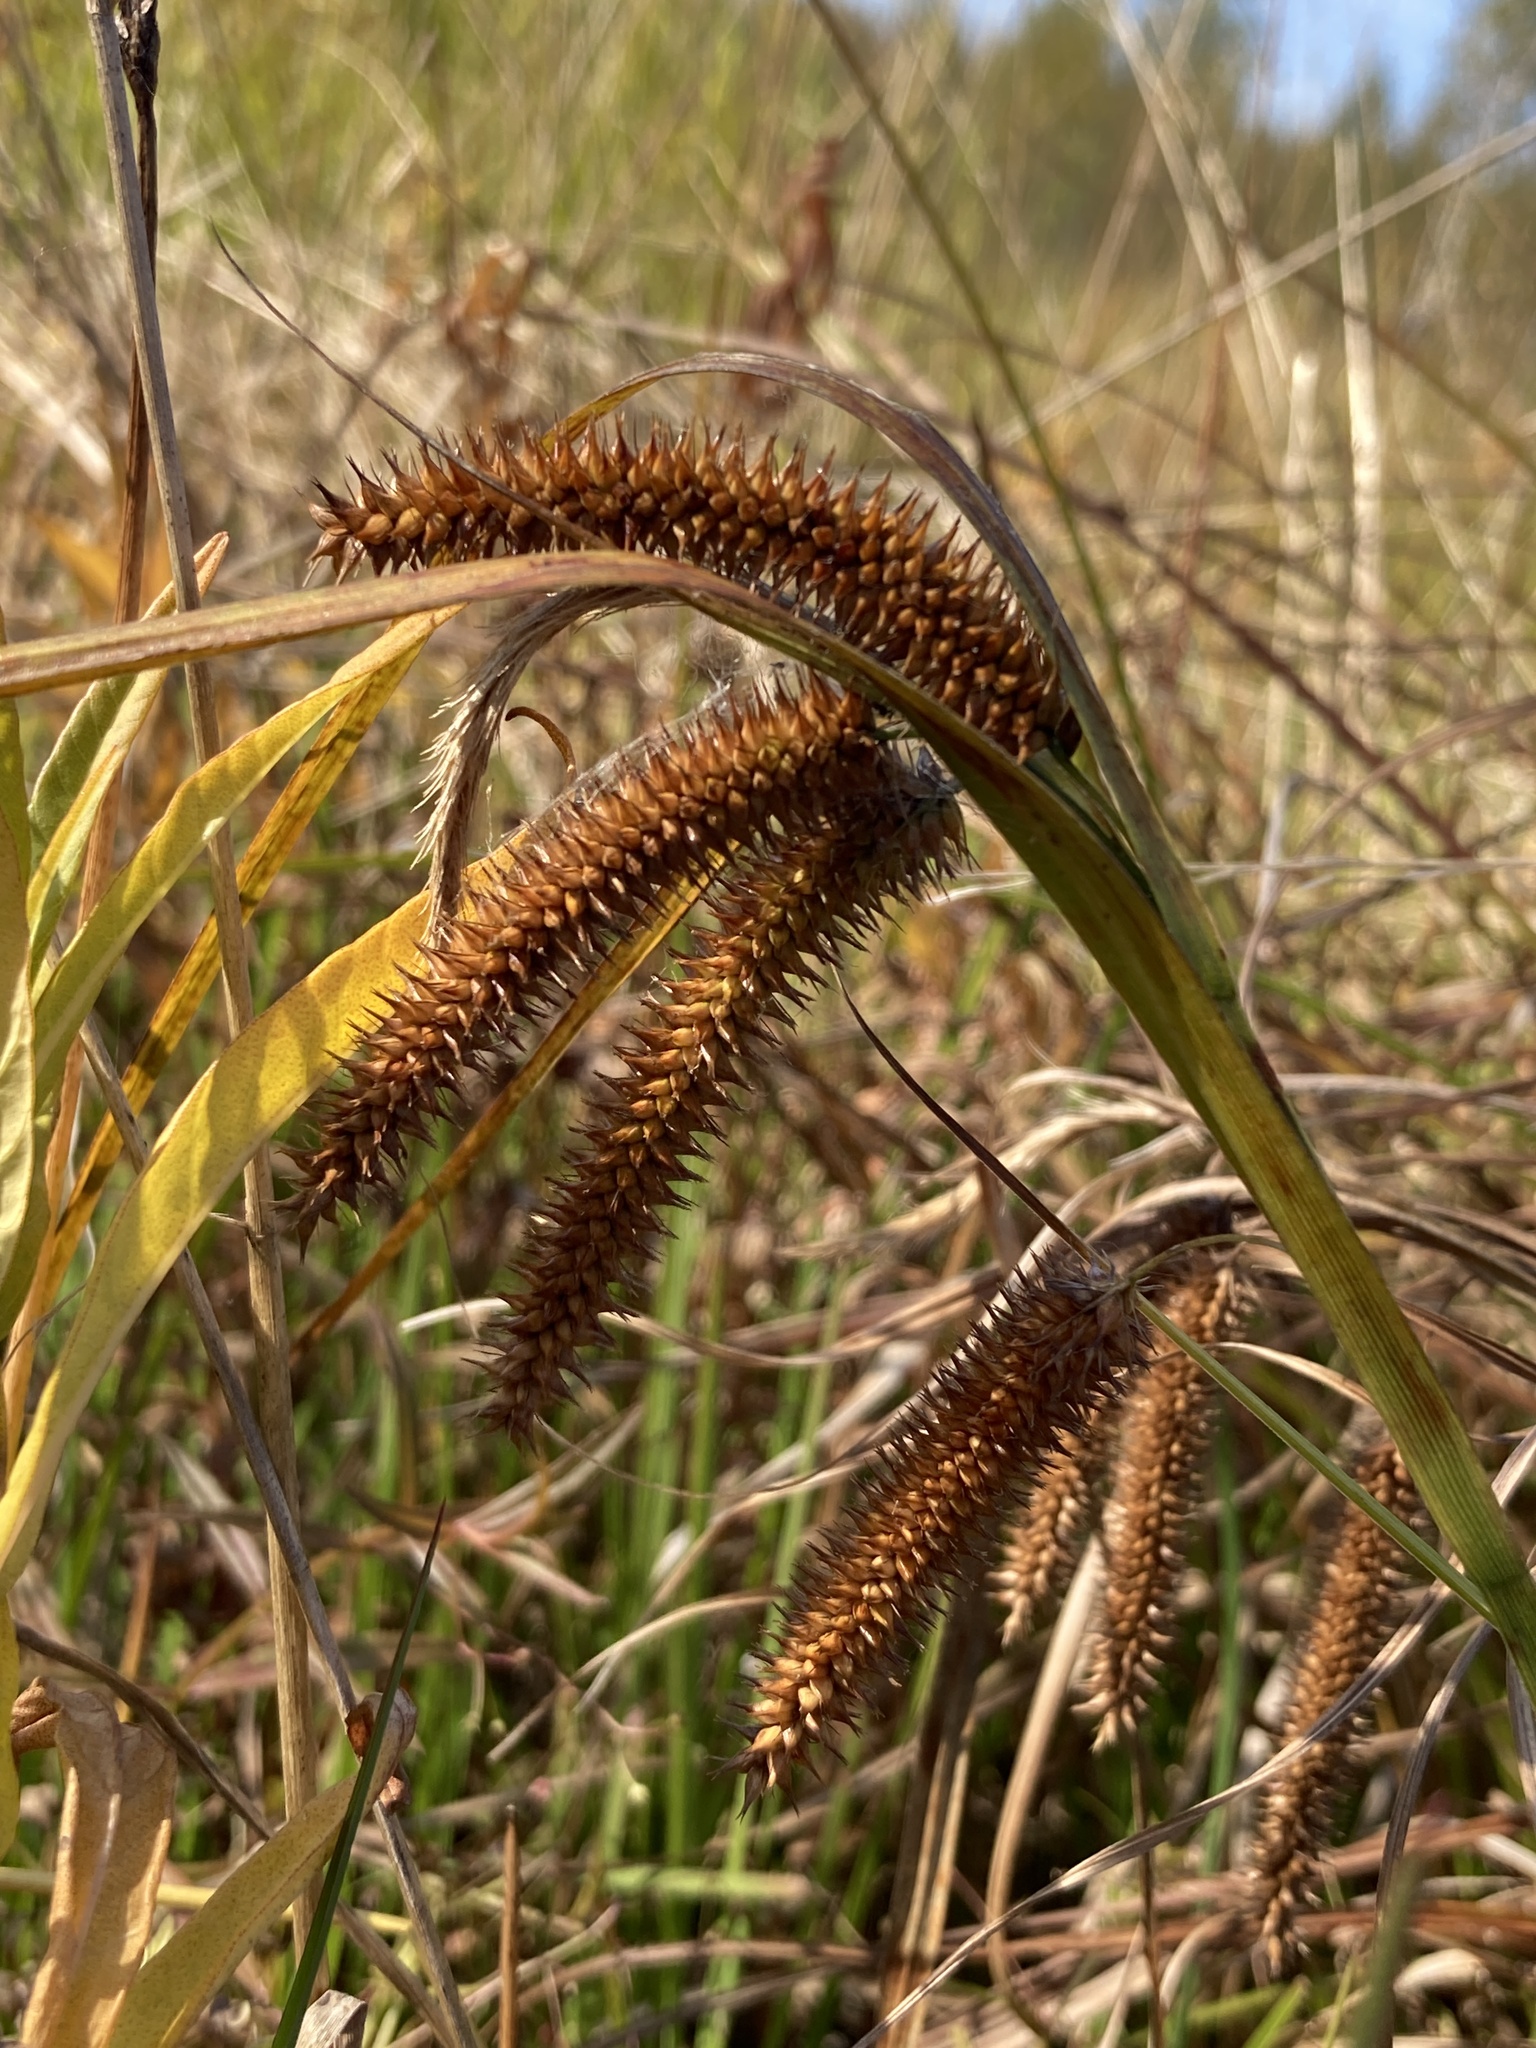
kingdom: Plantae
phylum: Tracheophyta
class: Liliopsida
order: Poales
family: Cyperaceae
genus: Carex
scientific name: Carex pseudocyperus
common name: Cyperus sedge
